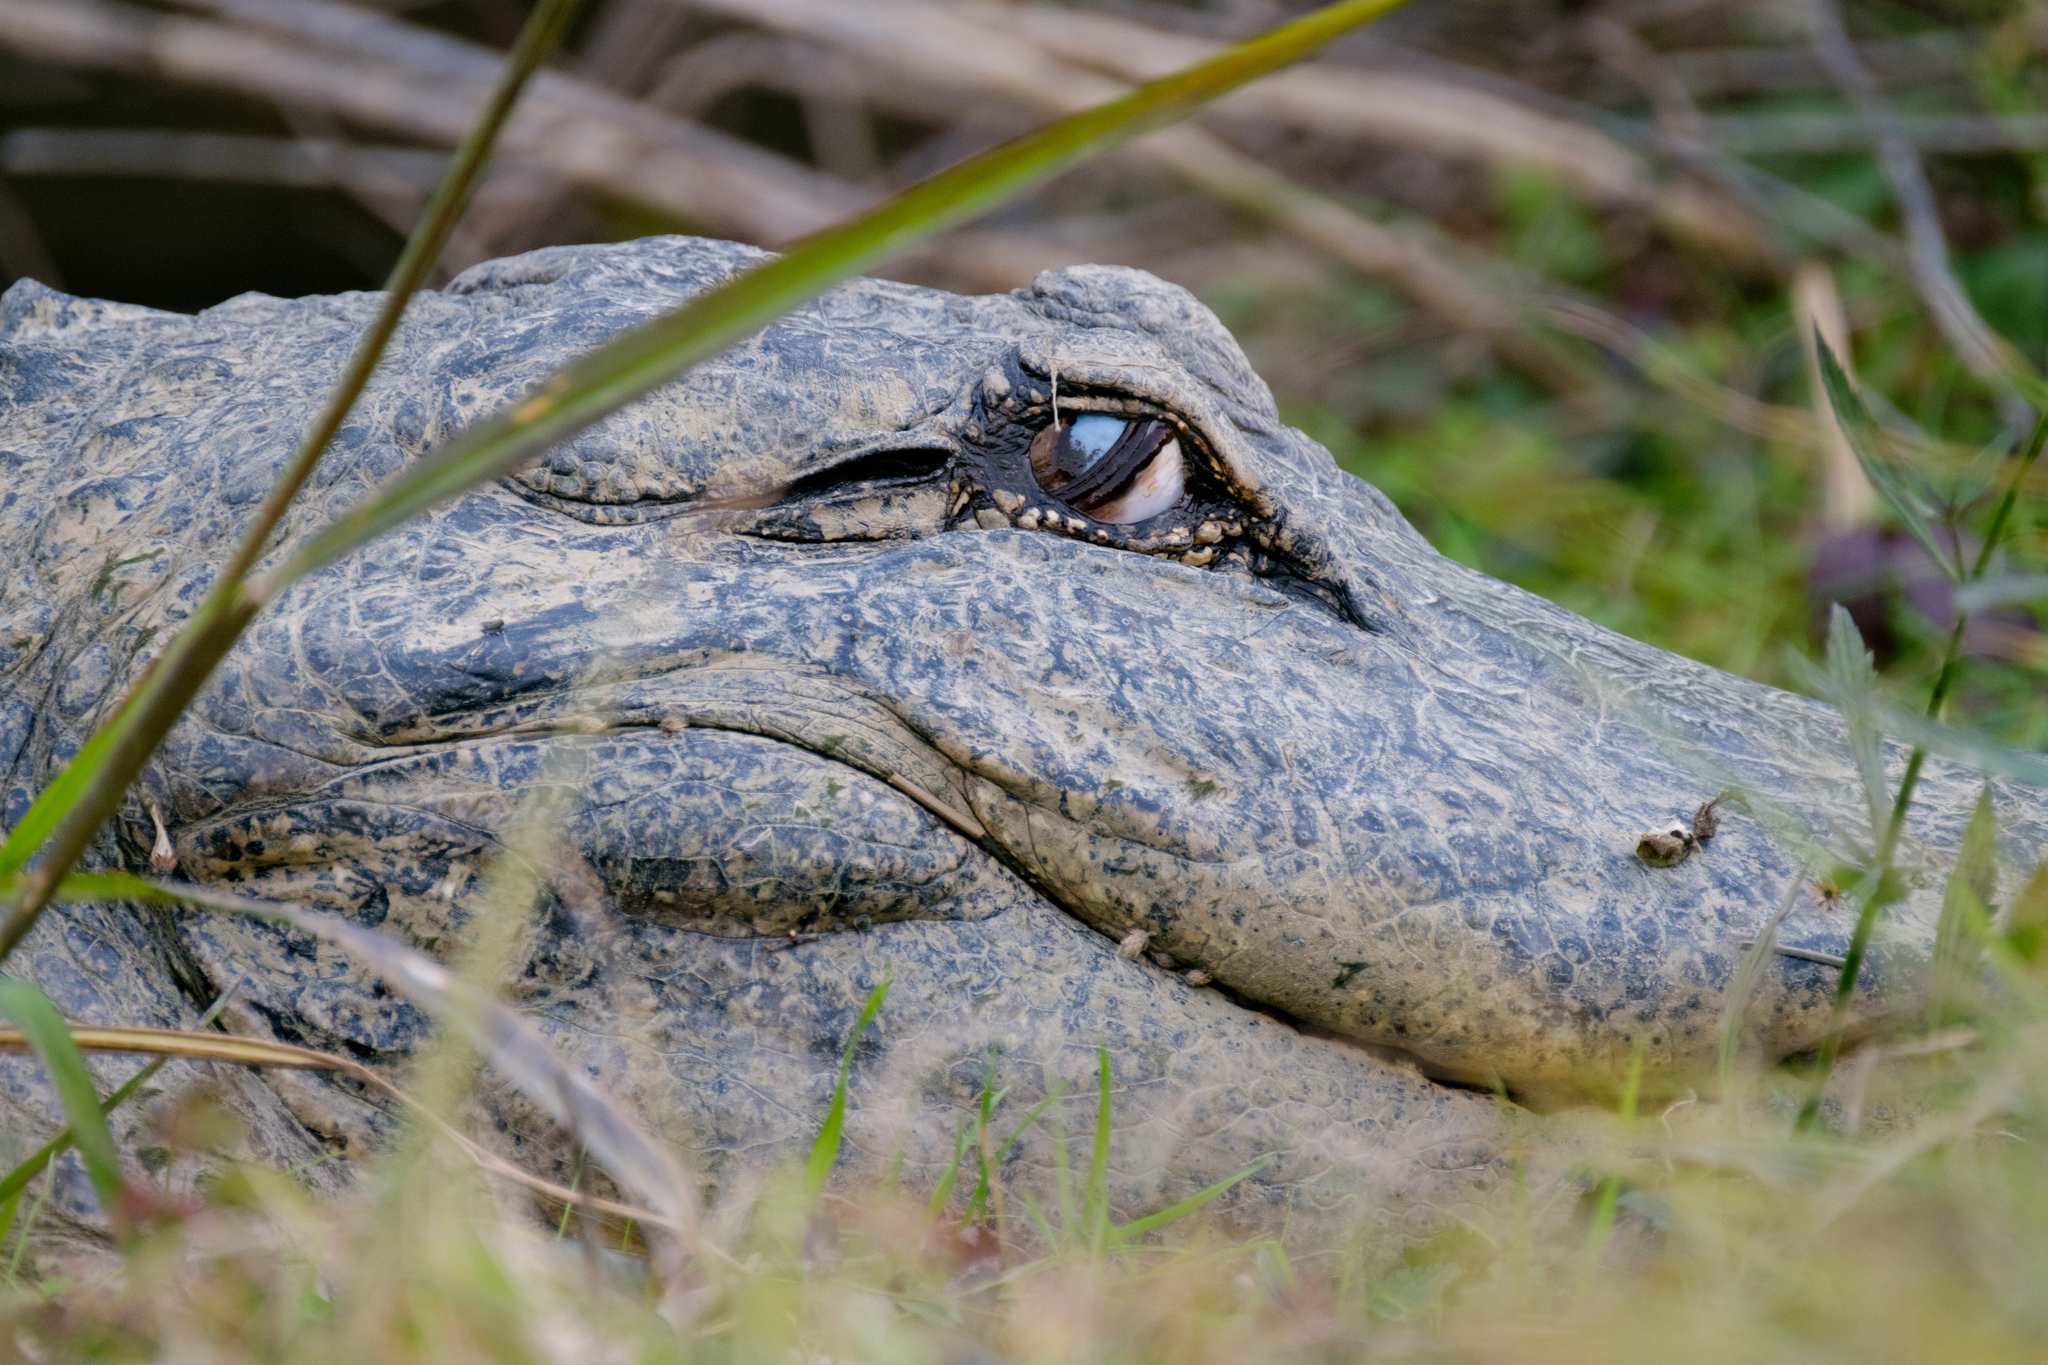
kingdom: Animalia
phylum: Chordata
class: Crocodylia
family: Alligatoridae
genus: Alligator
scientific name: Alligator mississippiensis
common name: American alligator
